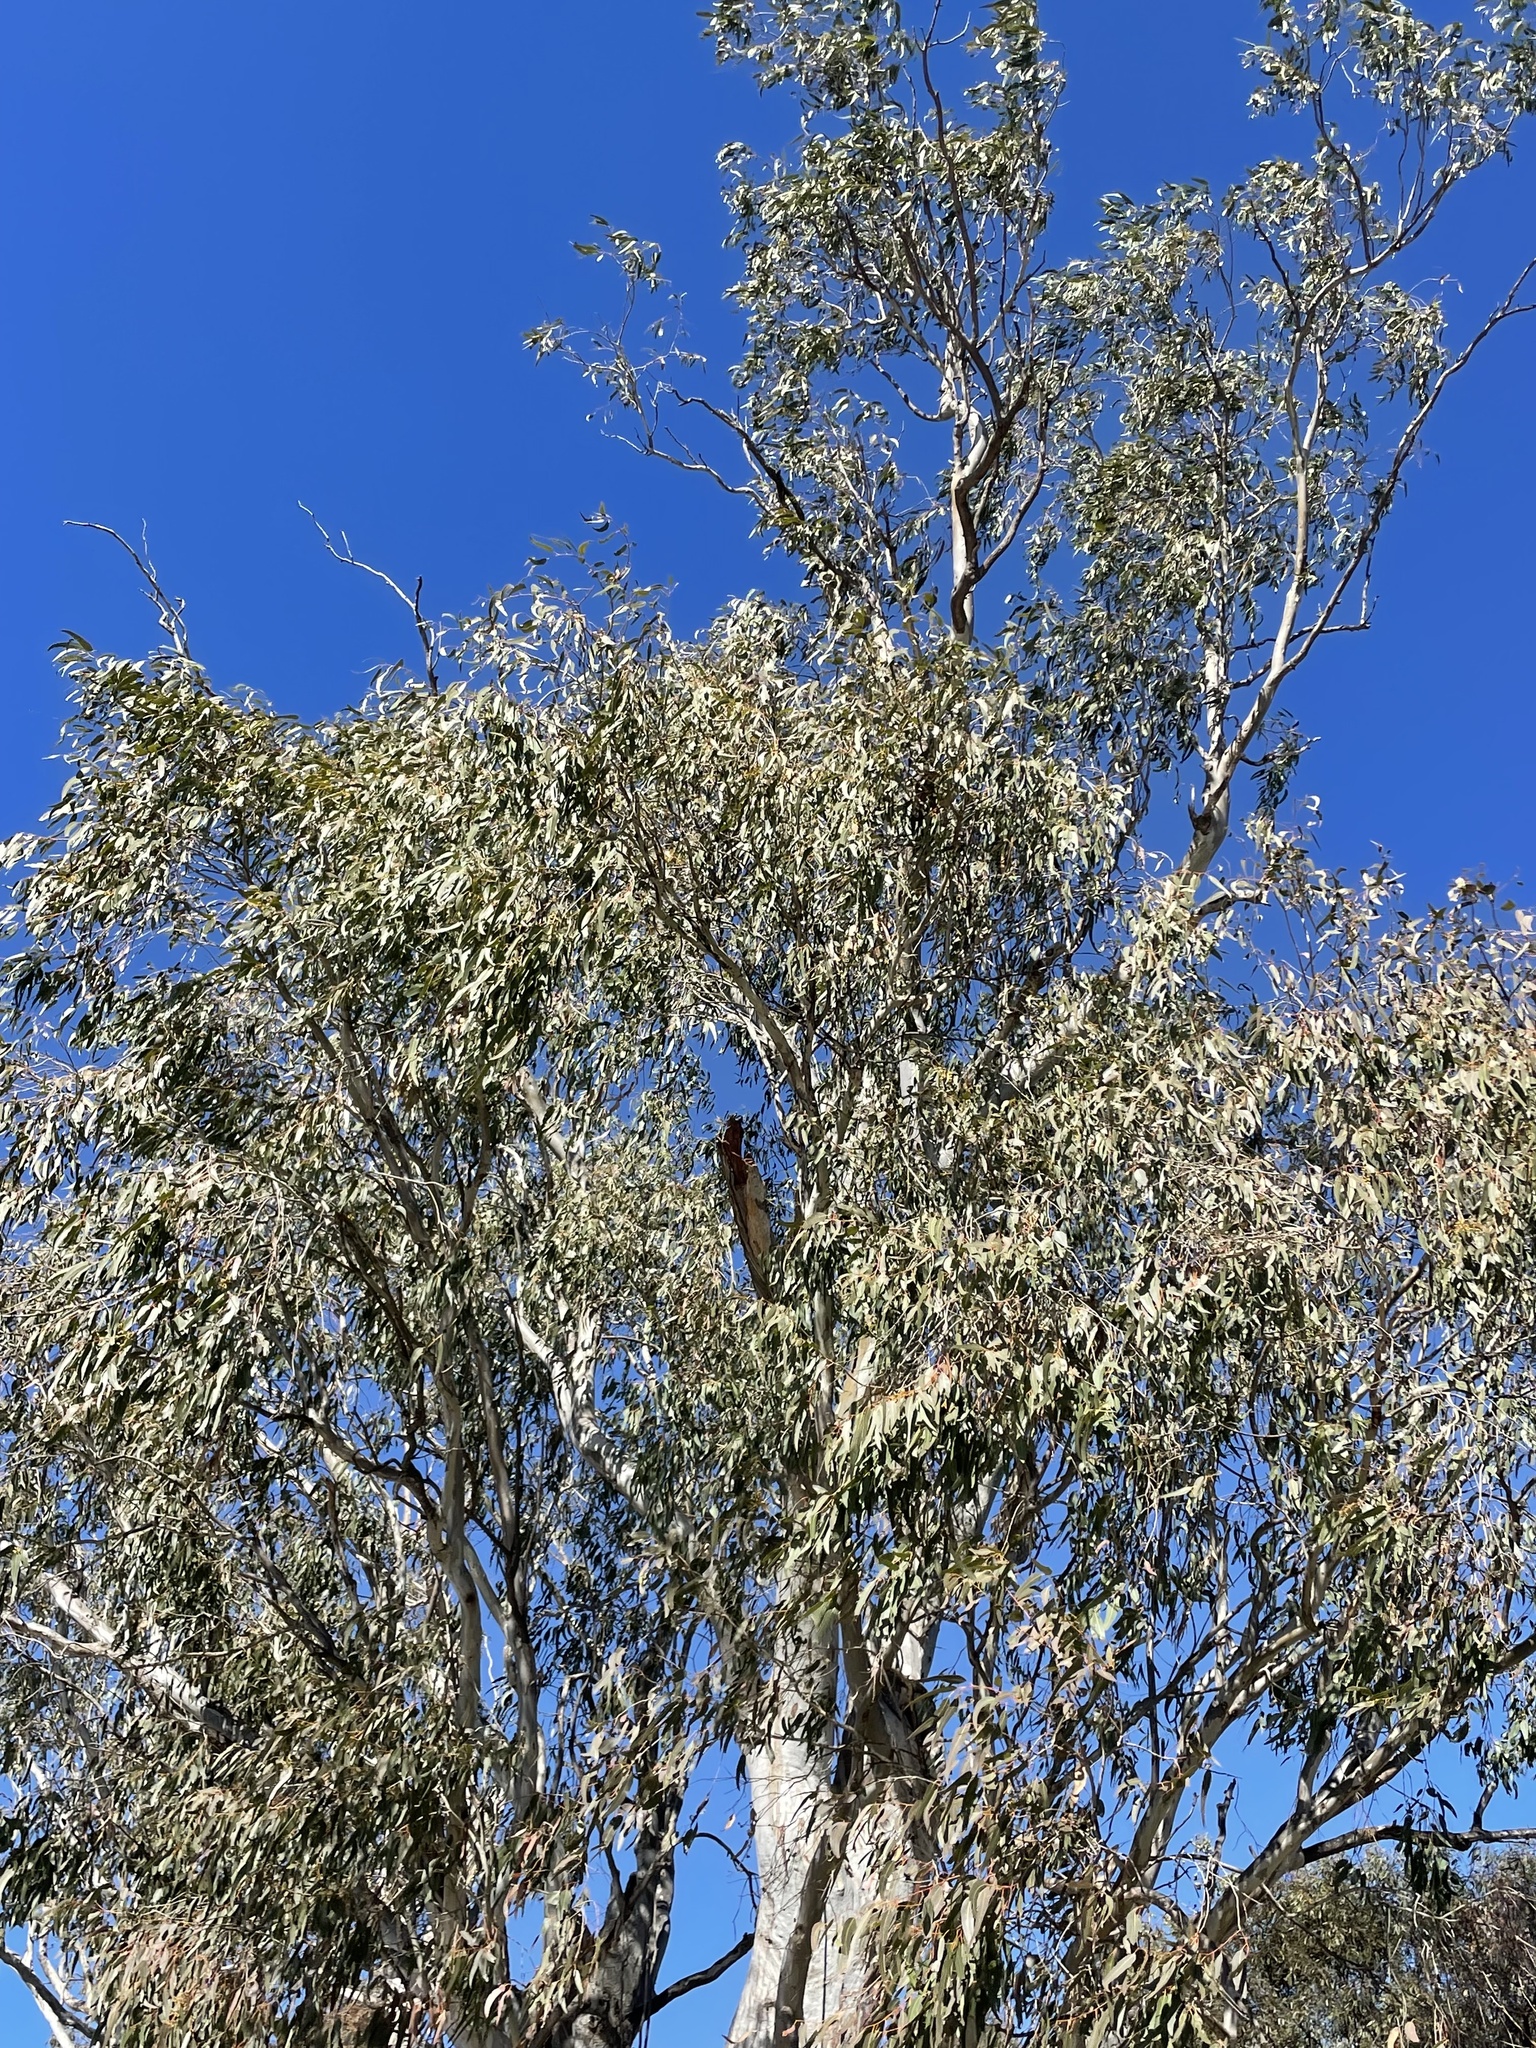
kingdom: Plantae
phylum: Tracheophyta
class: Magnoliopsida
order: Myrtales
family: Myrtaceae
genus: Eucalyptus
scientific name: Eucalyptus camaldulensis
